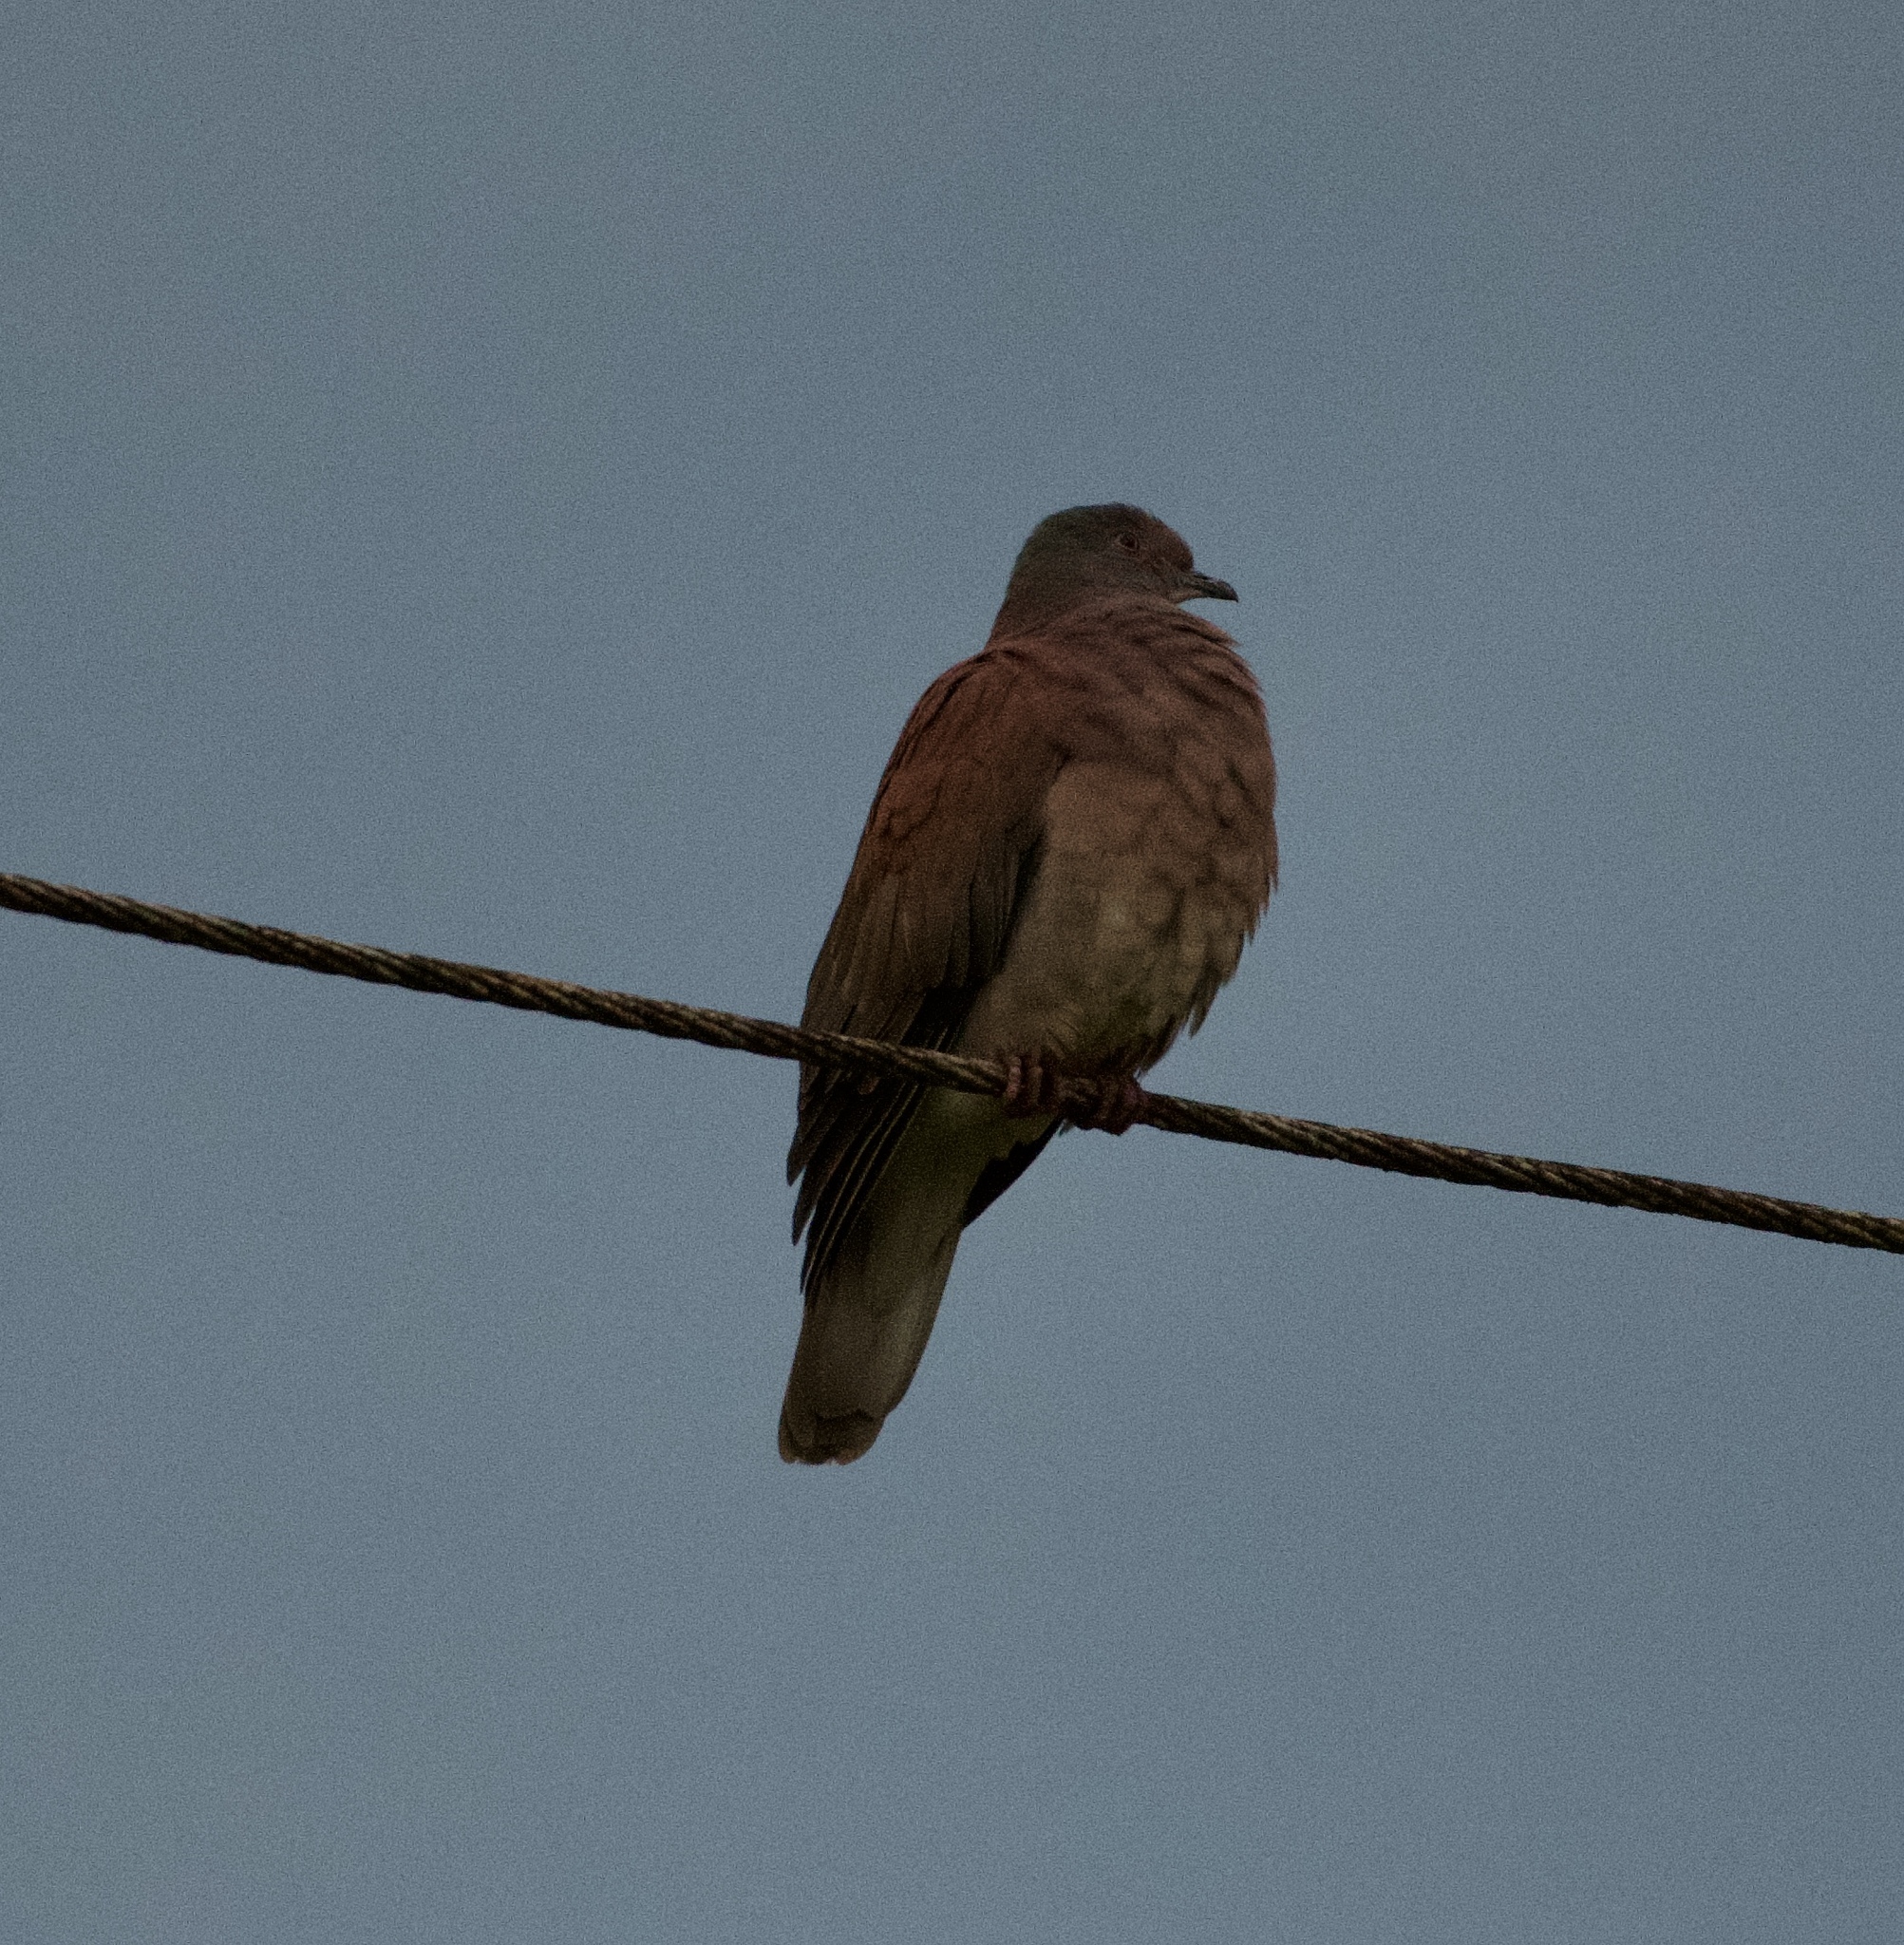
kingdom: Animalia
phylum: Chordata
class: Aves
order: Columbiformes
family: Columbidae
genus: Patagioenas
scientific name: Patagioenas cayennensis
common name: Pale-vented pigeon
